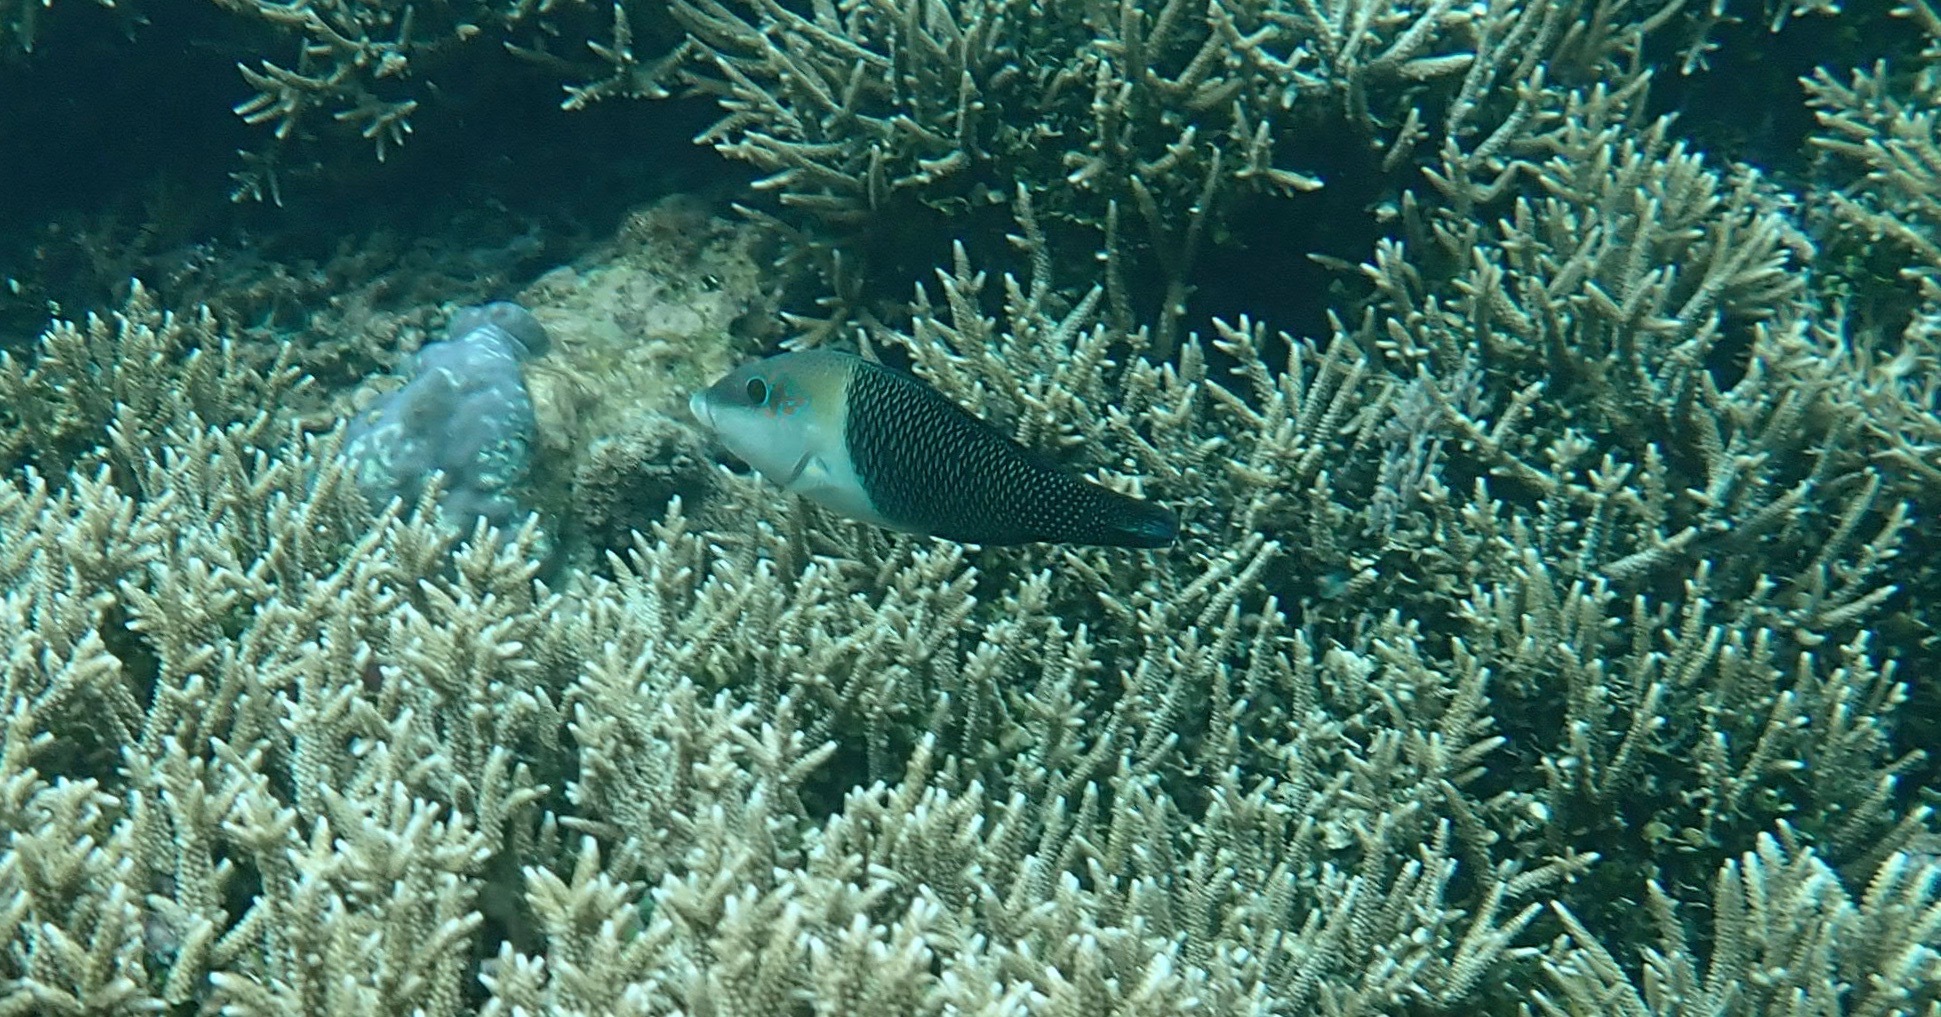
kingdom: Animalia
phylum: Chordata
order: Perciformes
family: Labridae
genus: Hemigymnus
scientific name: Hemigymnus melapterus
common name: Blackeye thicklip
